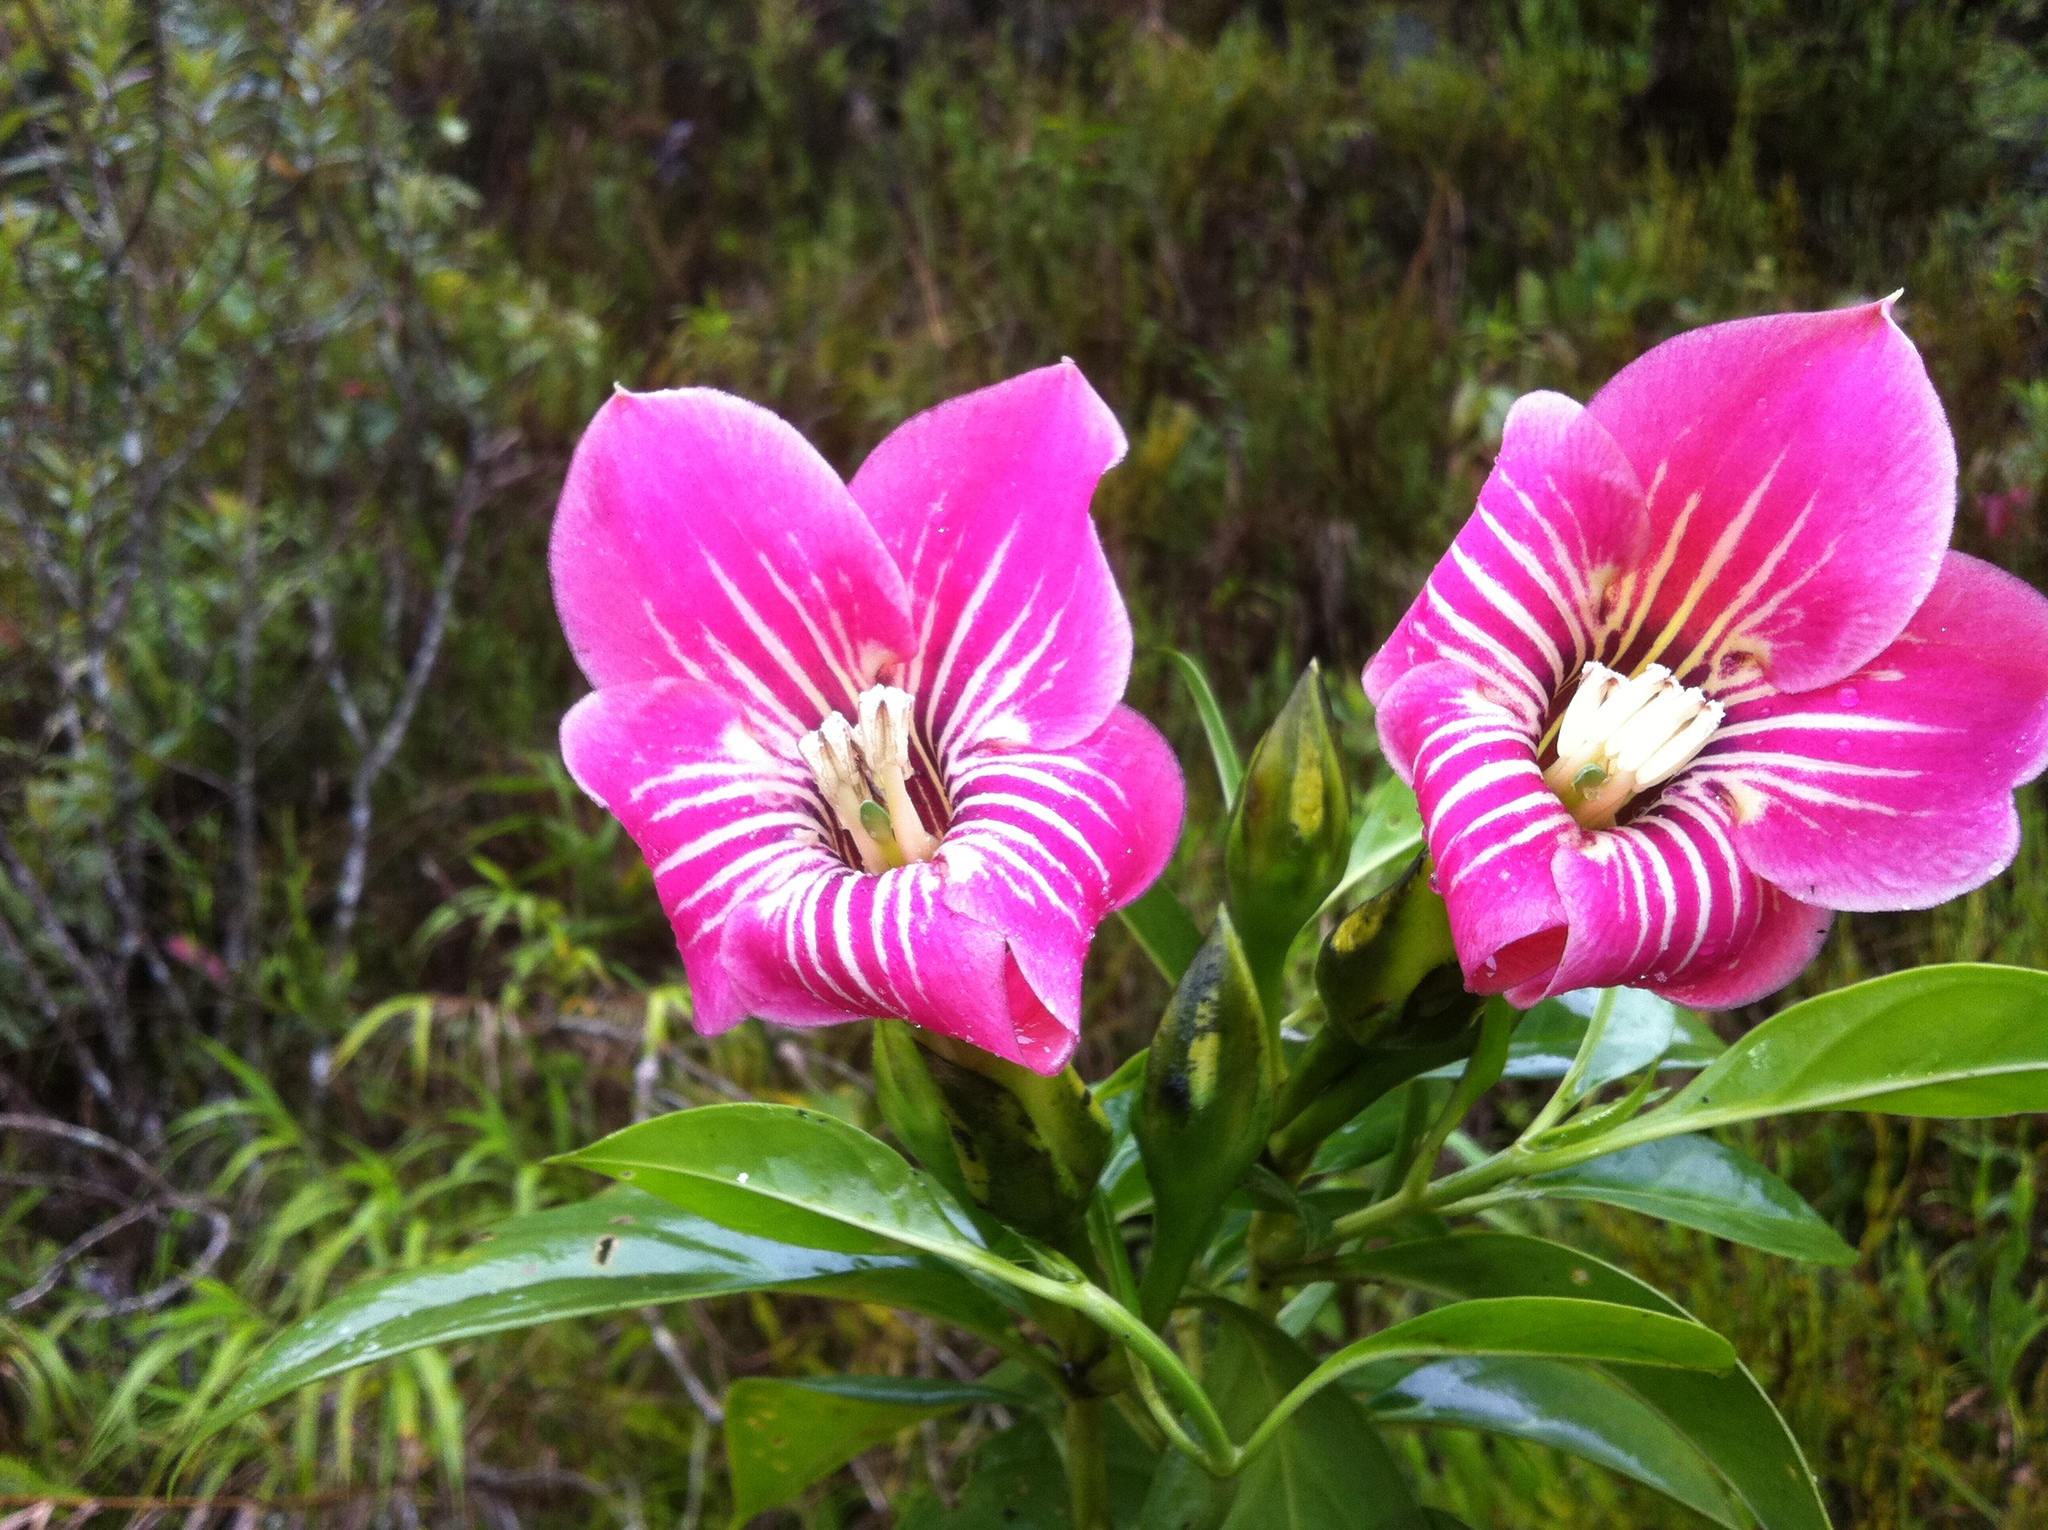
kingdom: Plantae
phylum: Tracheophyta
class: Magnoliopsida
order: Gentianales
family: Gentianaceae
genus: Symbolanthus
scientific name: Symbolanthus condorensis
